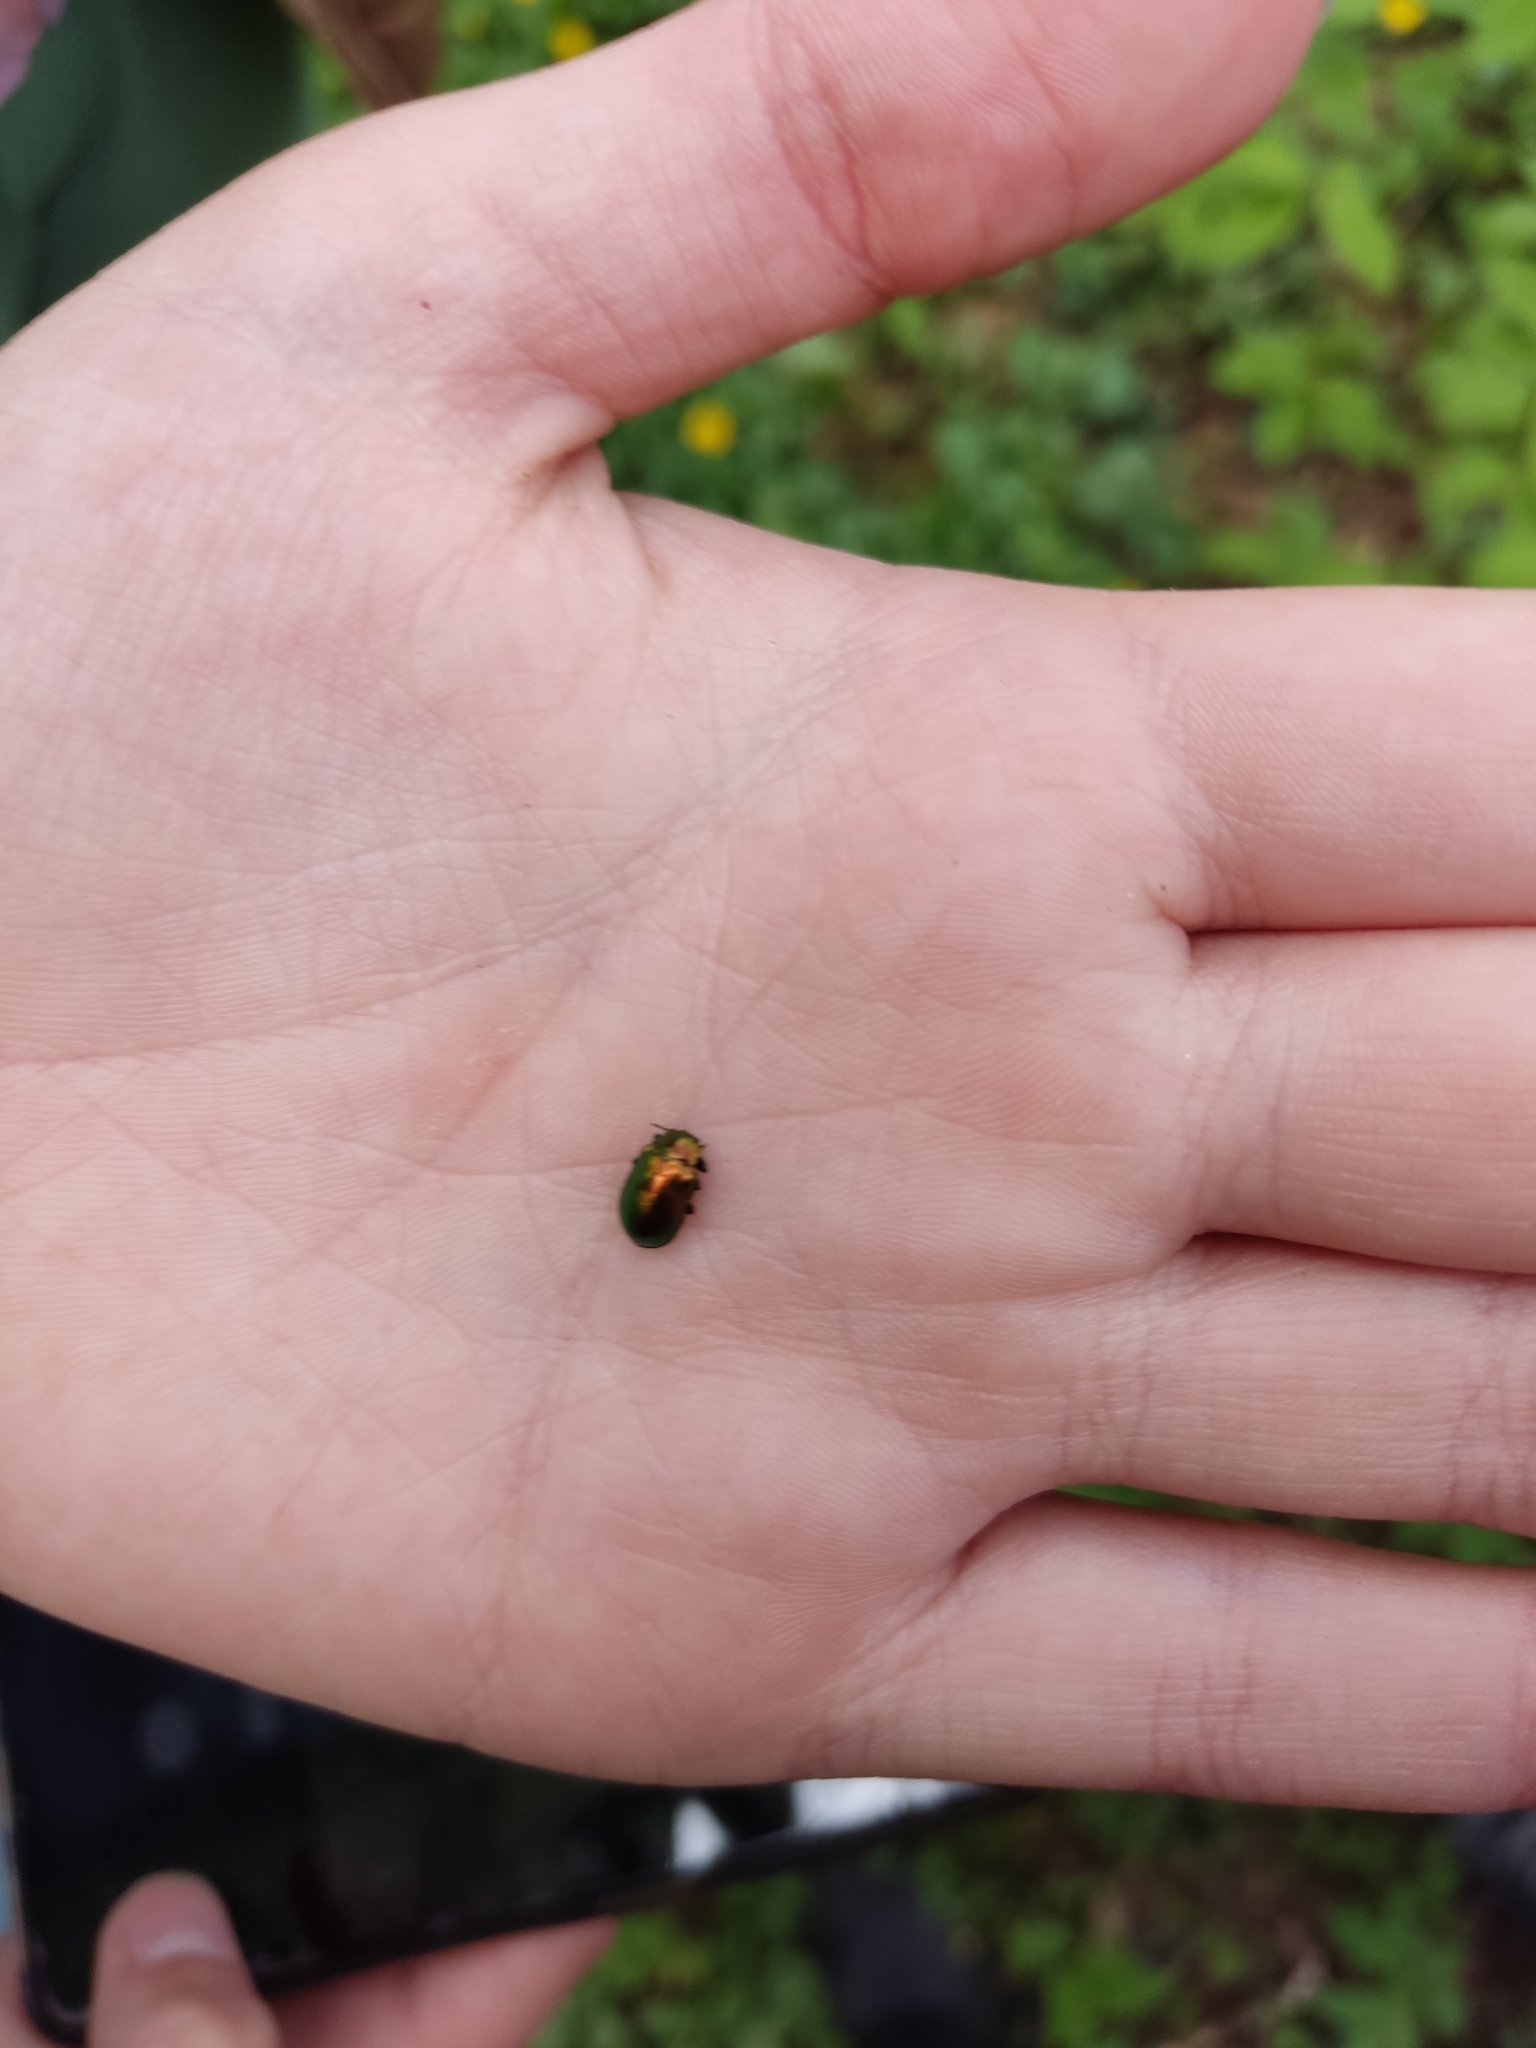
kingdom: Animalia
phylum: Arthropoda
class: Insecta
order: Coleoptera
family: Chrysomelidae
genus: Plagiosterna
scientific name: Plagiosterna aenea
